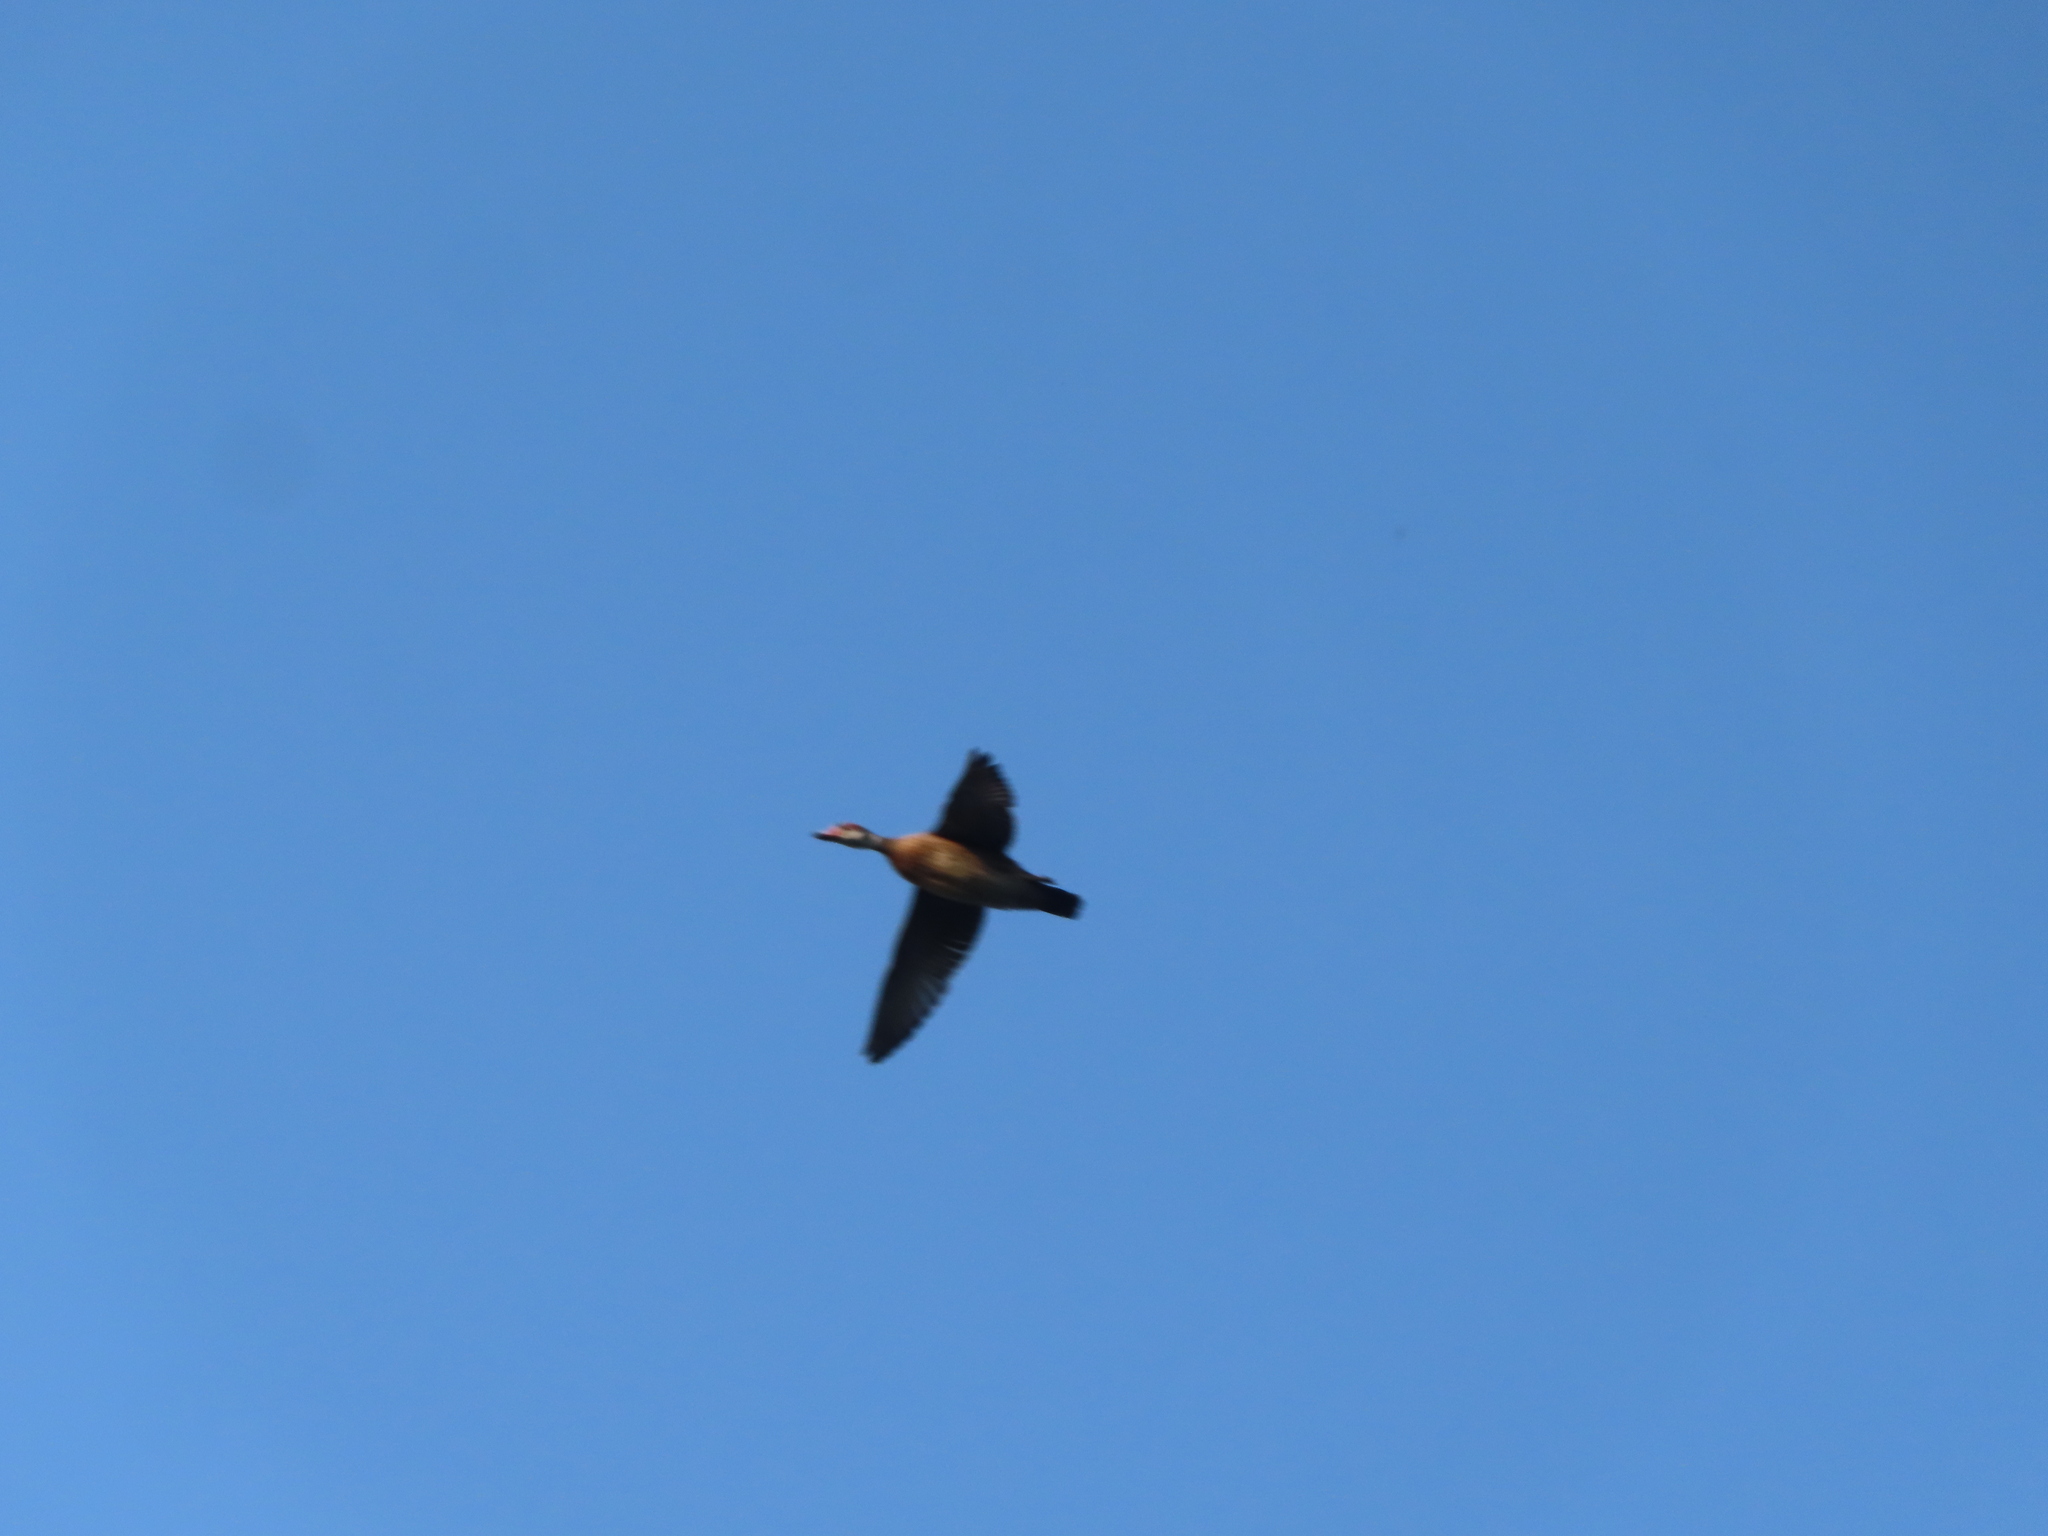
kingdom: Animalia
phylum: Chordata
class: Aves
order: Anseriformes
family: Anatidae
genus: Aix
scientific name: Aix sponsa
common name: Wood duck
